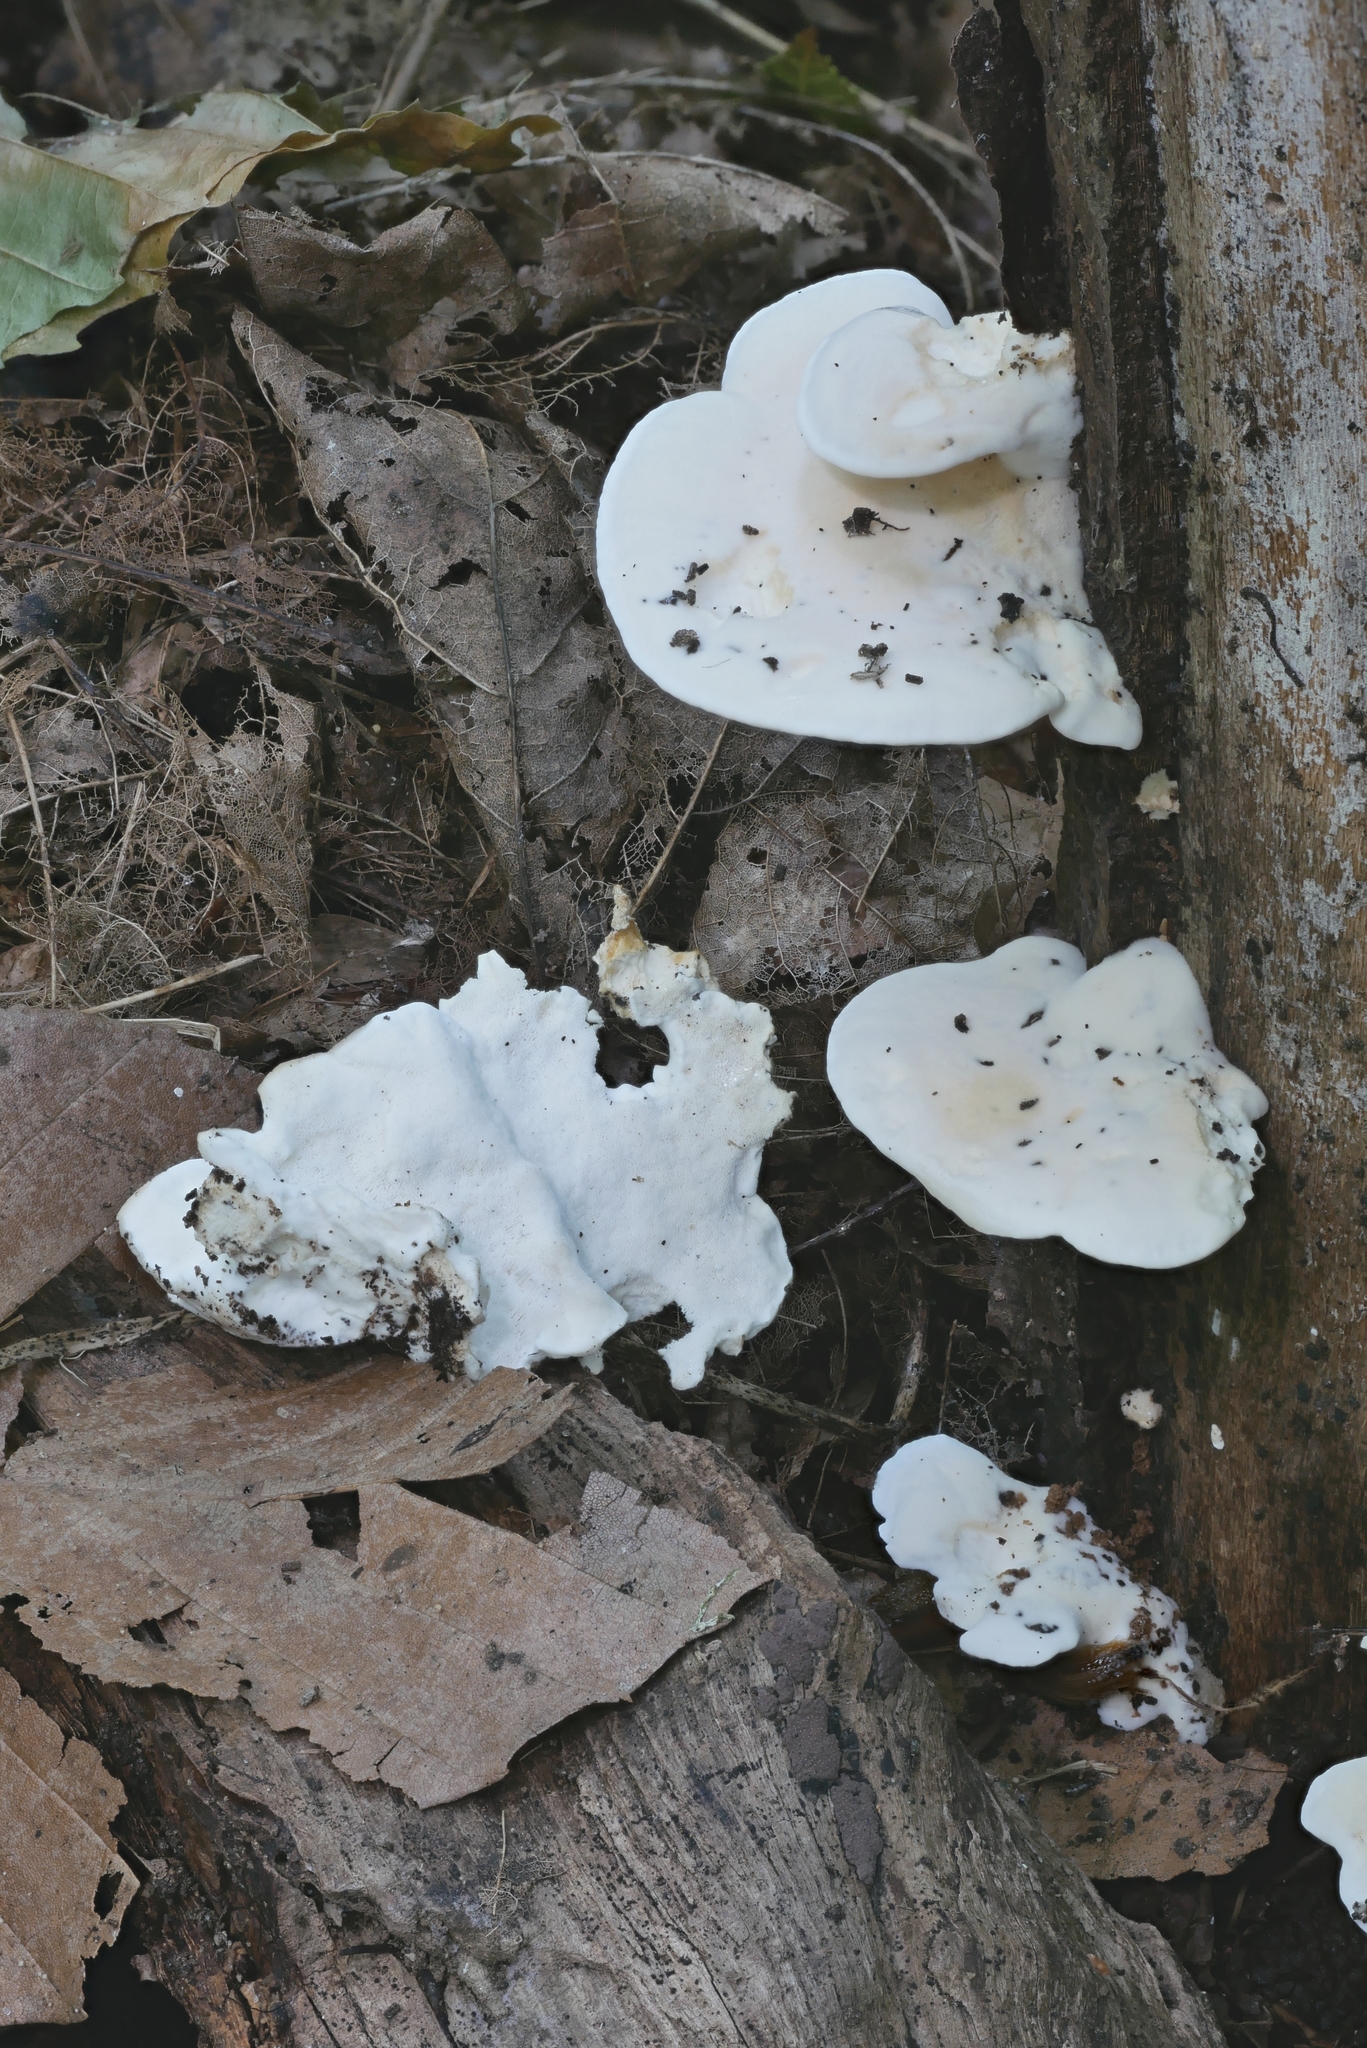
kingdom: Fungi
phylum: Basidiomycota
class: Agaricomycetes
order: Polyporales
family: Steccherinaceae
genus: Loweomyces
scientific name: Loweomyces fractipes
